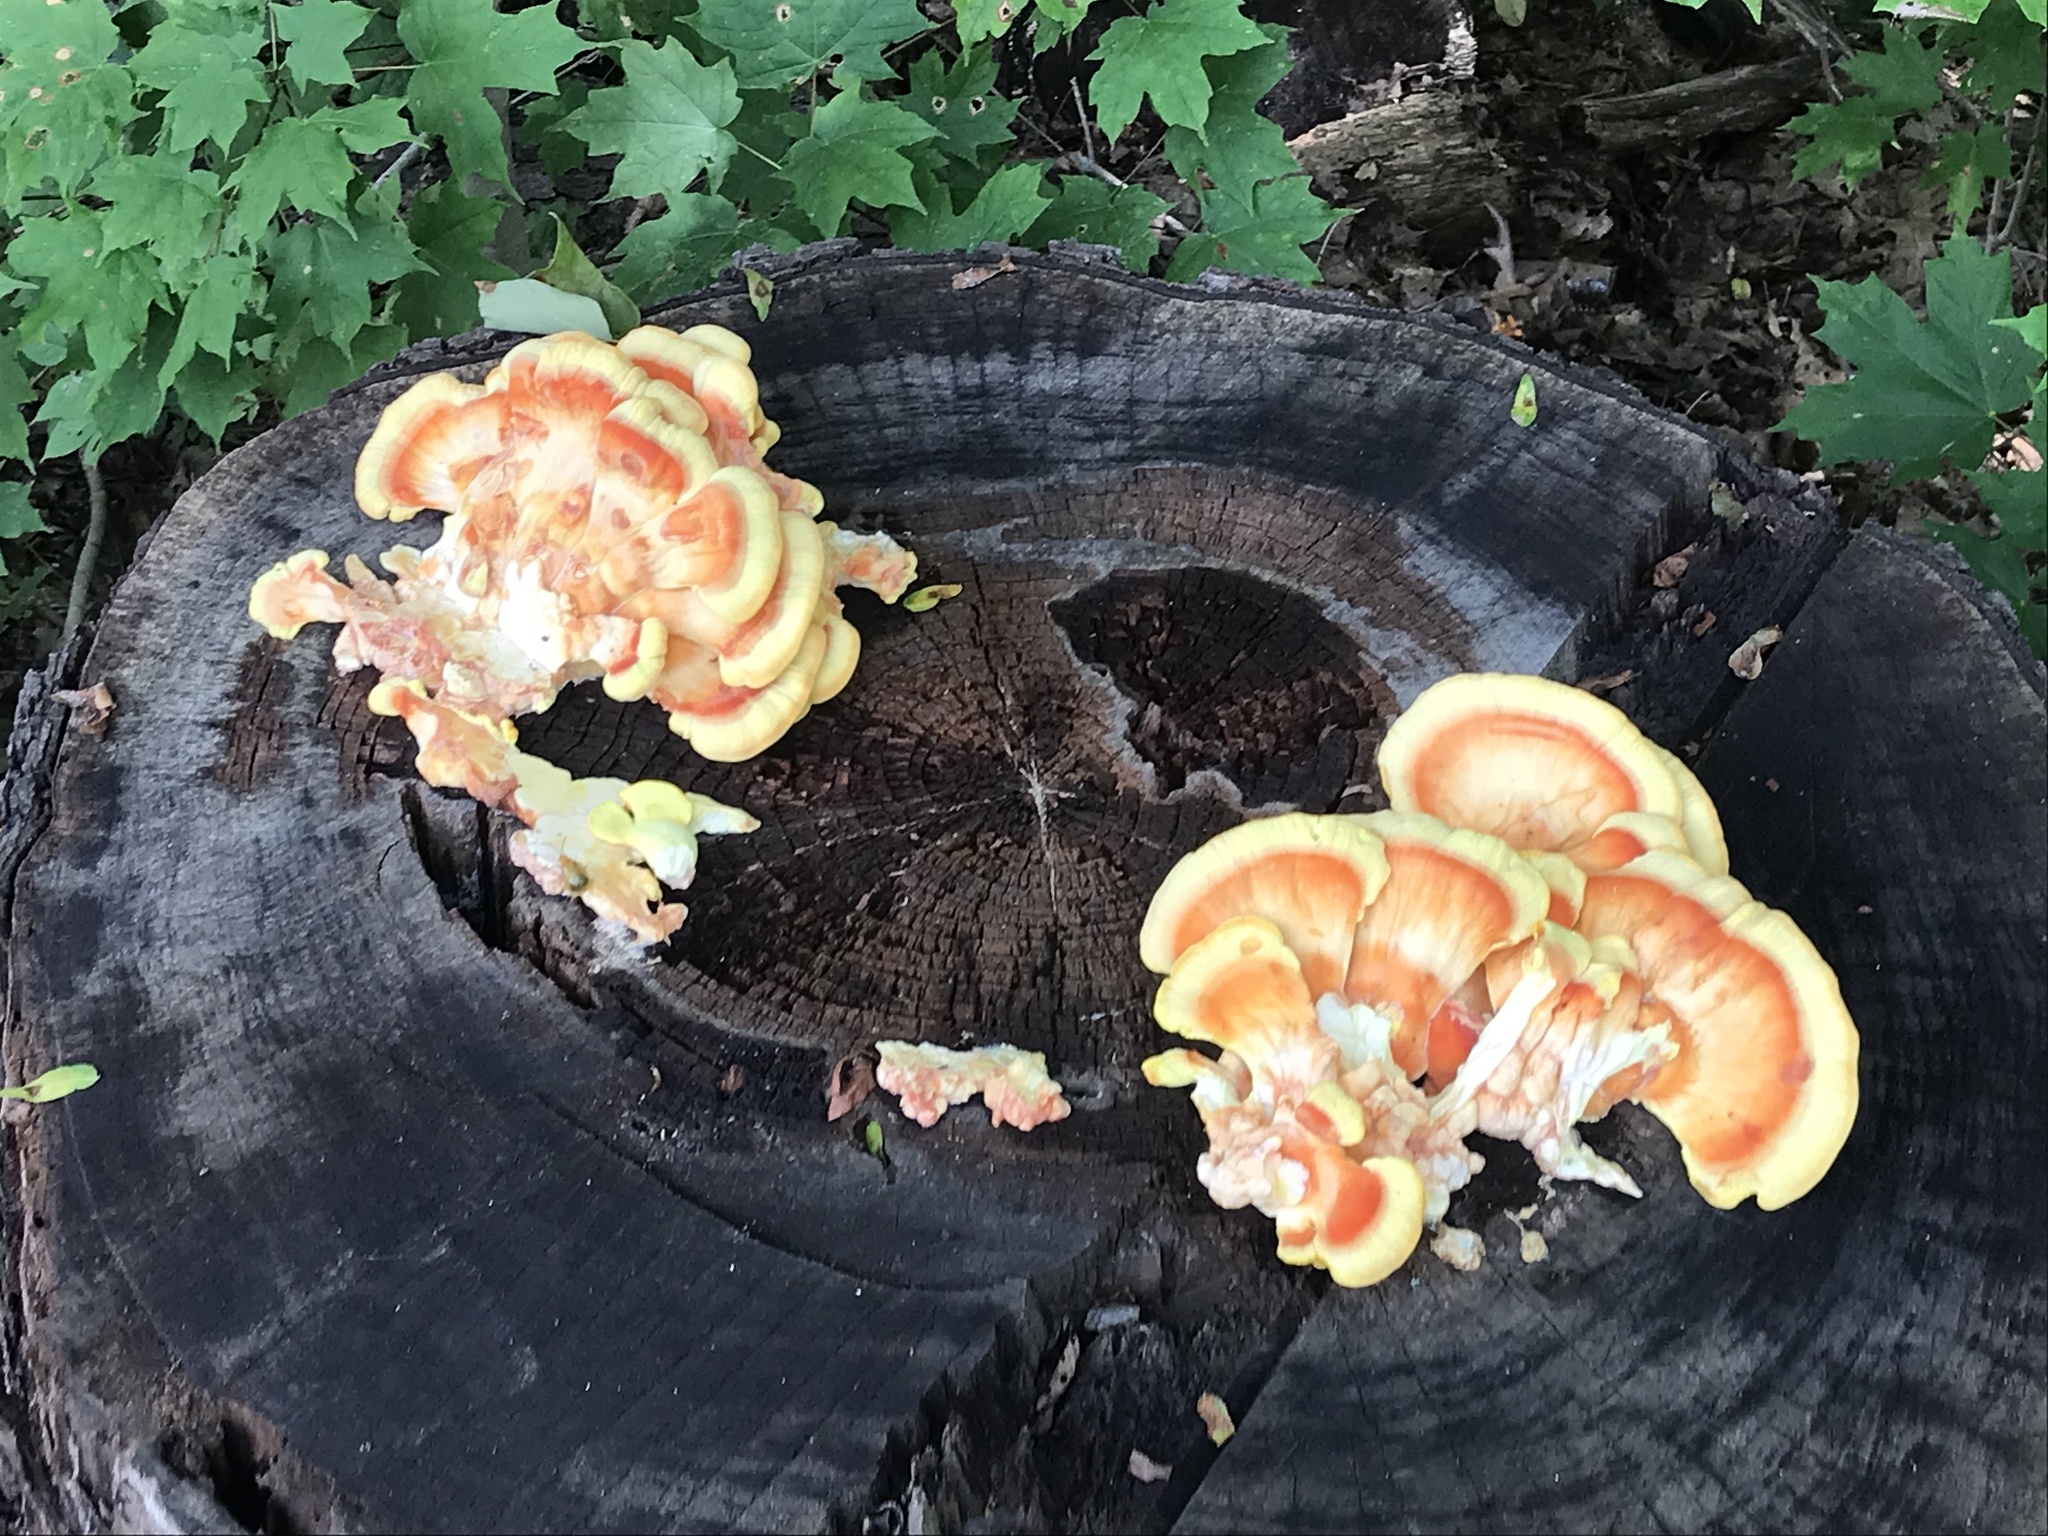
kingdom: Fungi
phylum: Basidiomycota
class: Agaricomycetes
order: Polyporales
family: Laetiporaceae
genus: Laetiporus
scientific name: Laetiporus sulphureus
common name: Chicken of the woods
